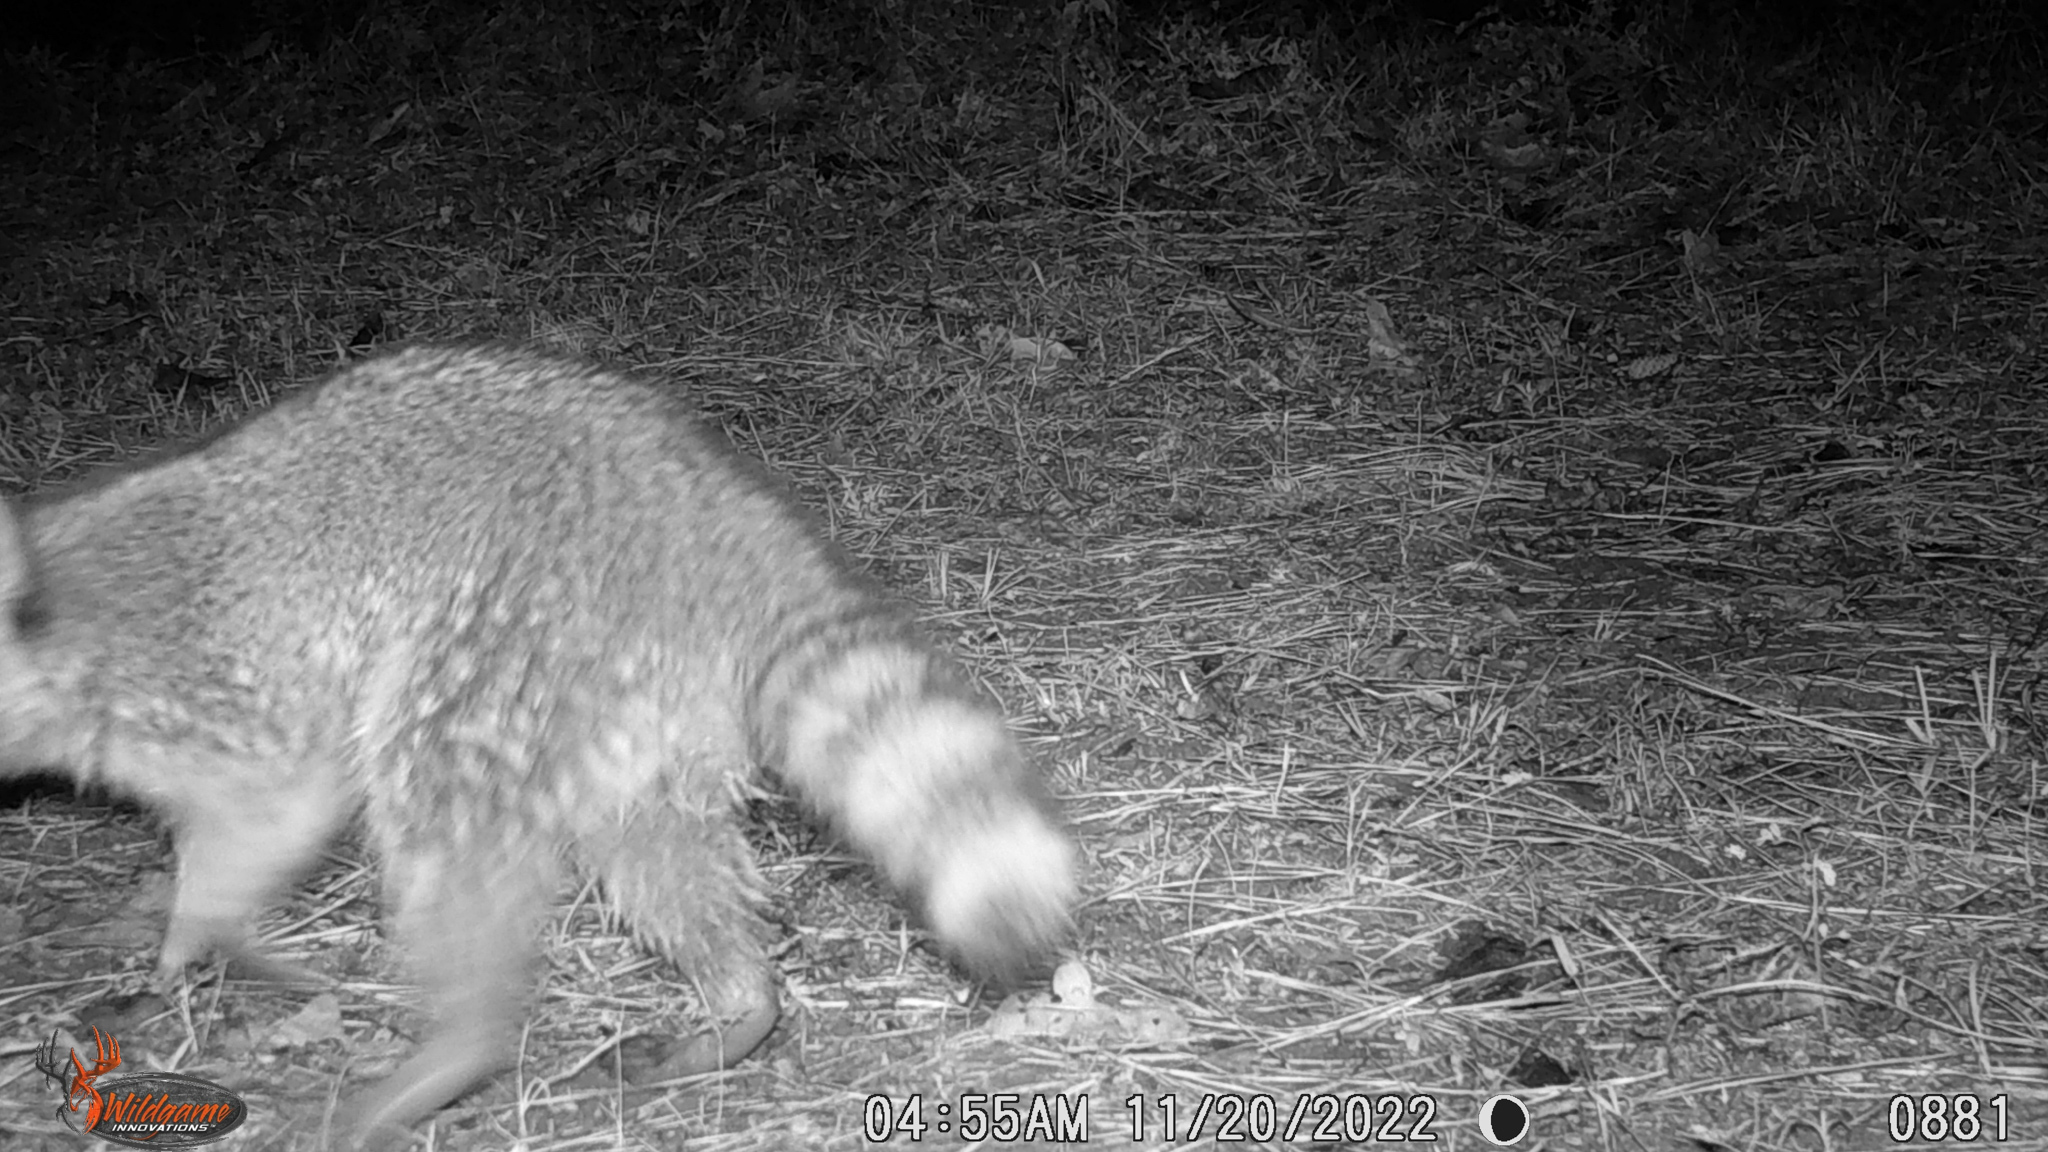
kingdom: Animalia
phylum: Chordata
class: Mammalia
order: Carnivora
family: Procyonidae
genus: Procyon
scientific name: Procyon lotor
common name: Raccoon
